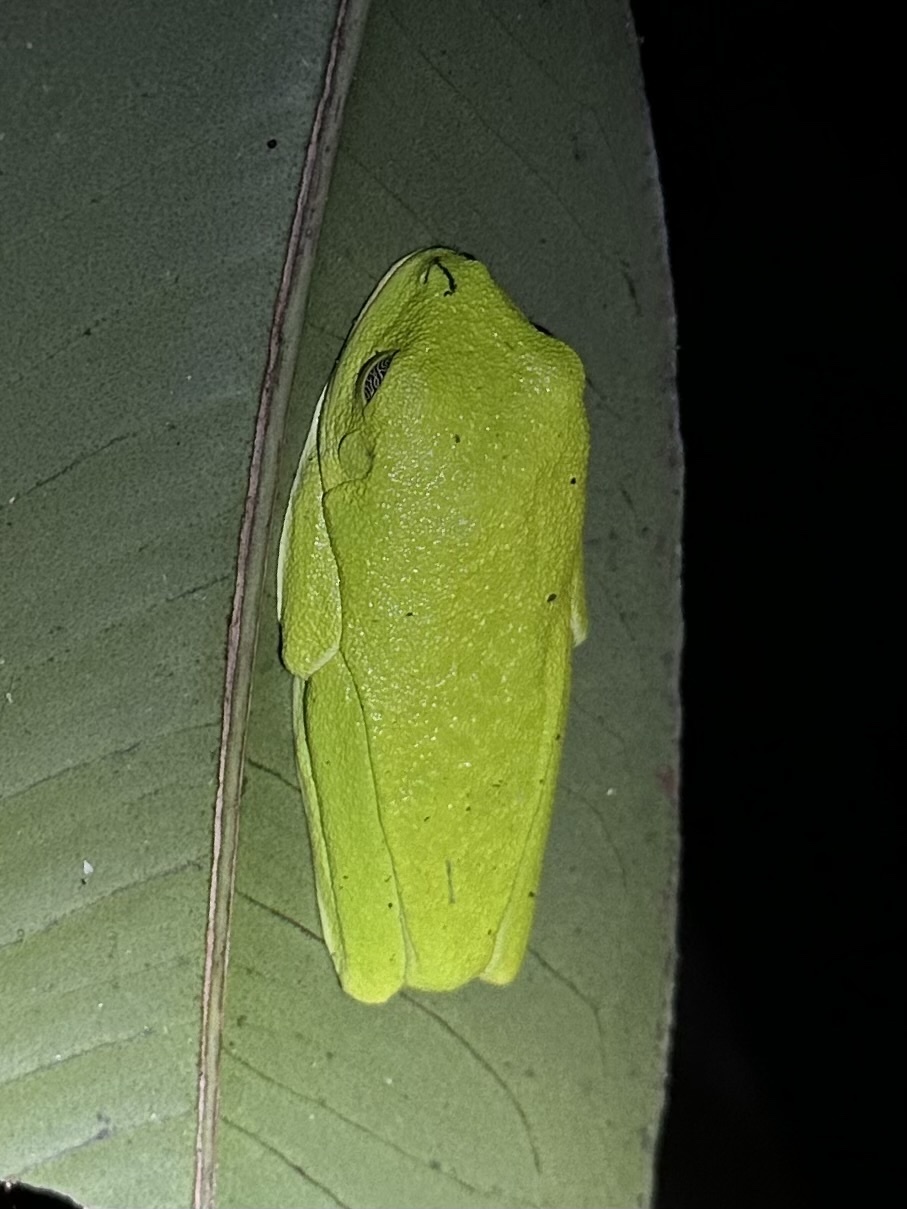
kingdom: Animalia
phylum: Chordata
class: Amphibia
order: Anura
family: Phyllomedusidae
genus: Agalychnis
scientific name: Agalychnis callidryas
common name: Red-eyed treefrog
